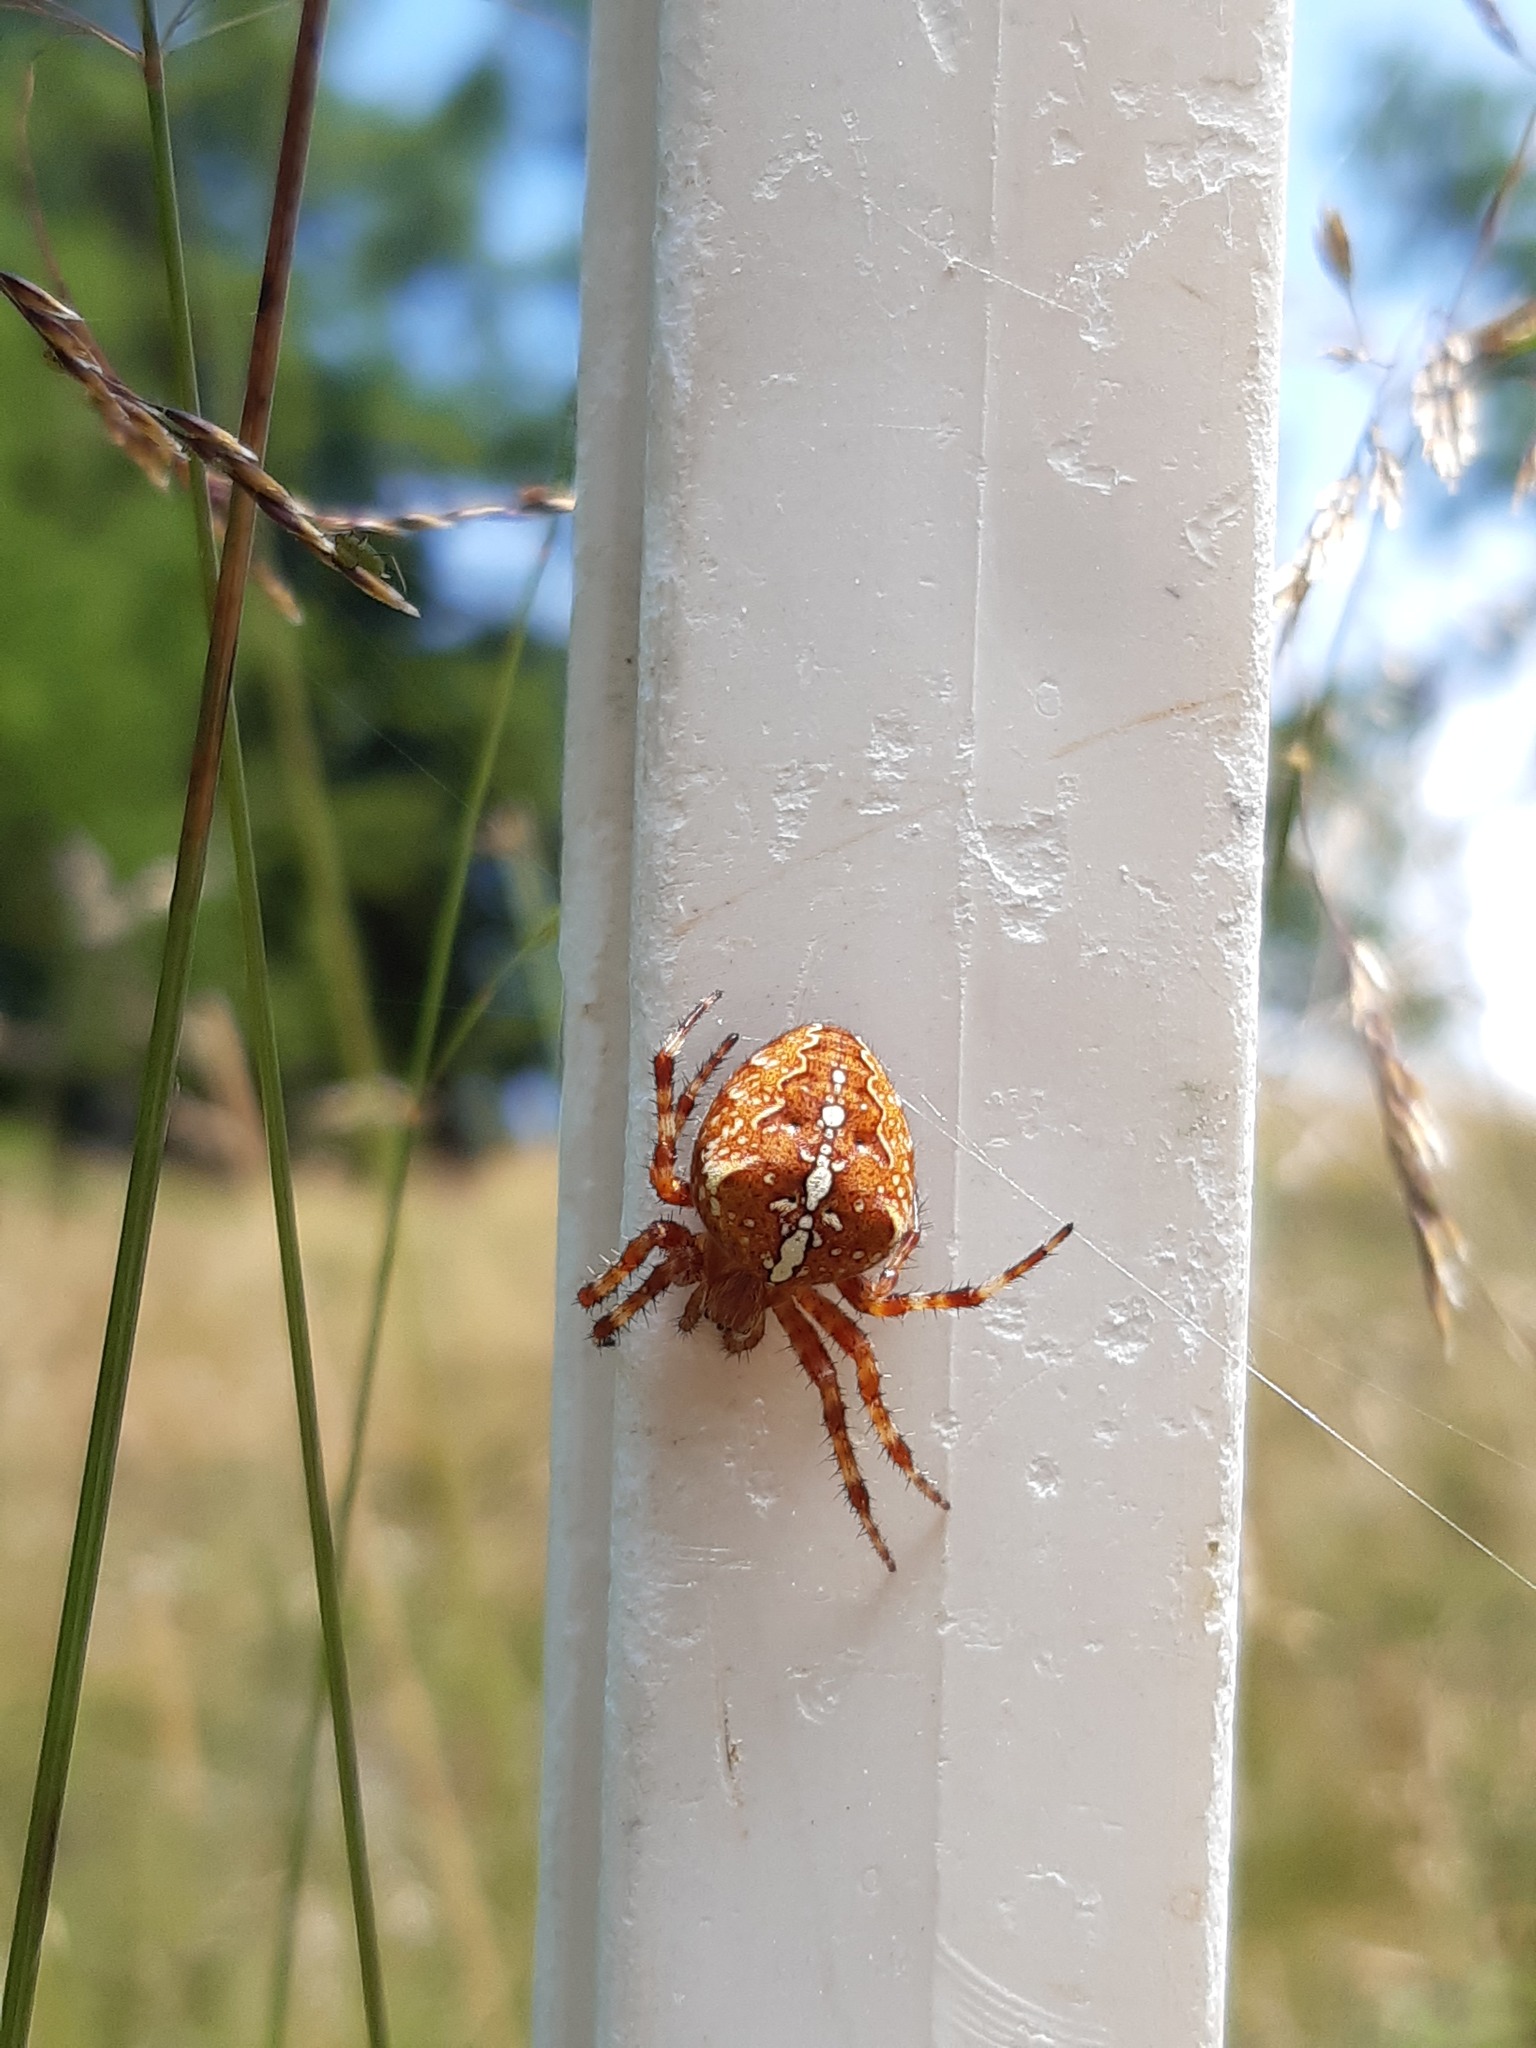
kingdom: Animalia
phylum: Arthropoda
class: Arachnida
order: Araneae
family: Araneidae
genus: Araneus
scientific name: Araneus diadematus
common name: Cross orbweaver
